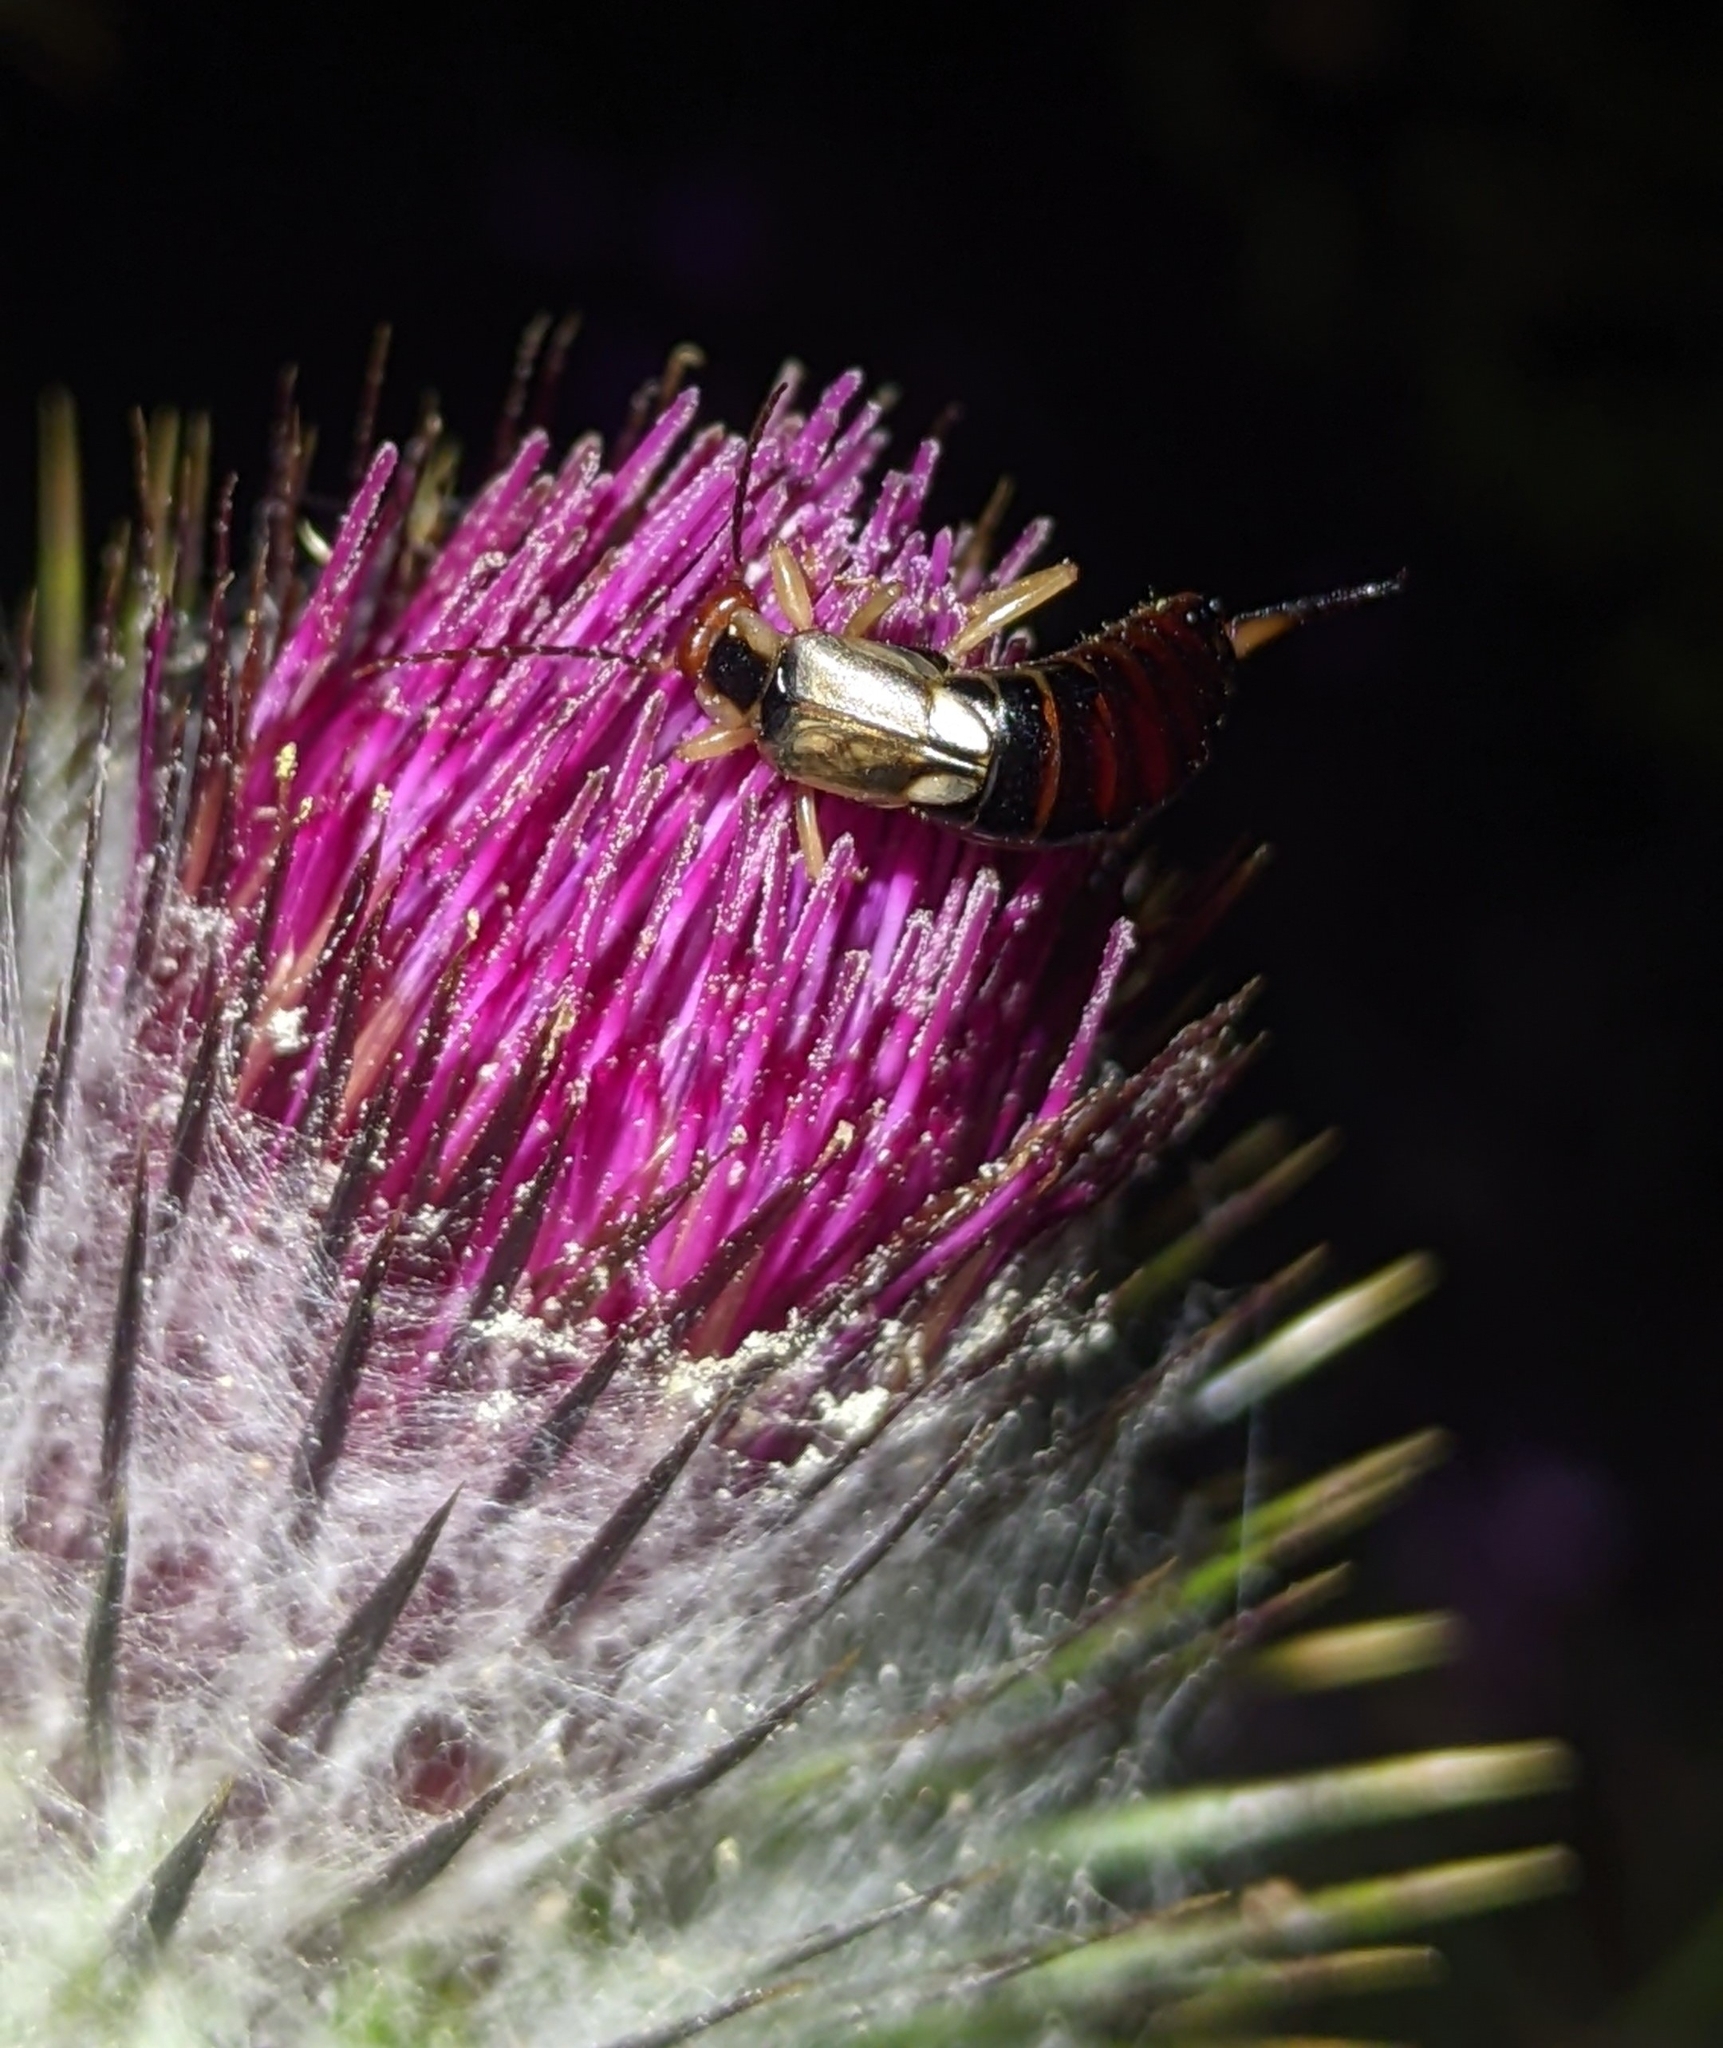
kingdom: Animalia
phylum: Arthropoda
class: Insecta
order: Dermaptera
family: Forficulidae
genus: Forficula
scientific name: Forficula dentata
